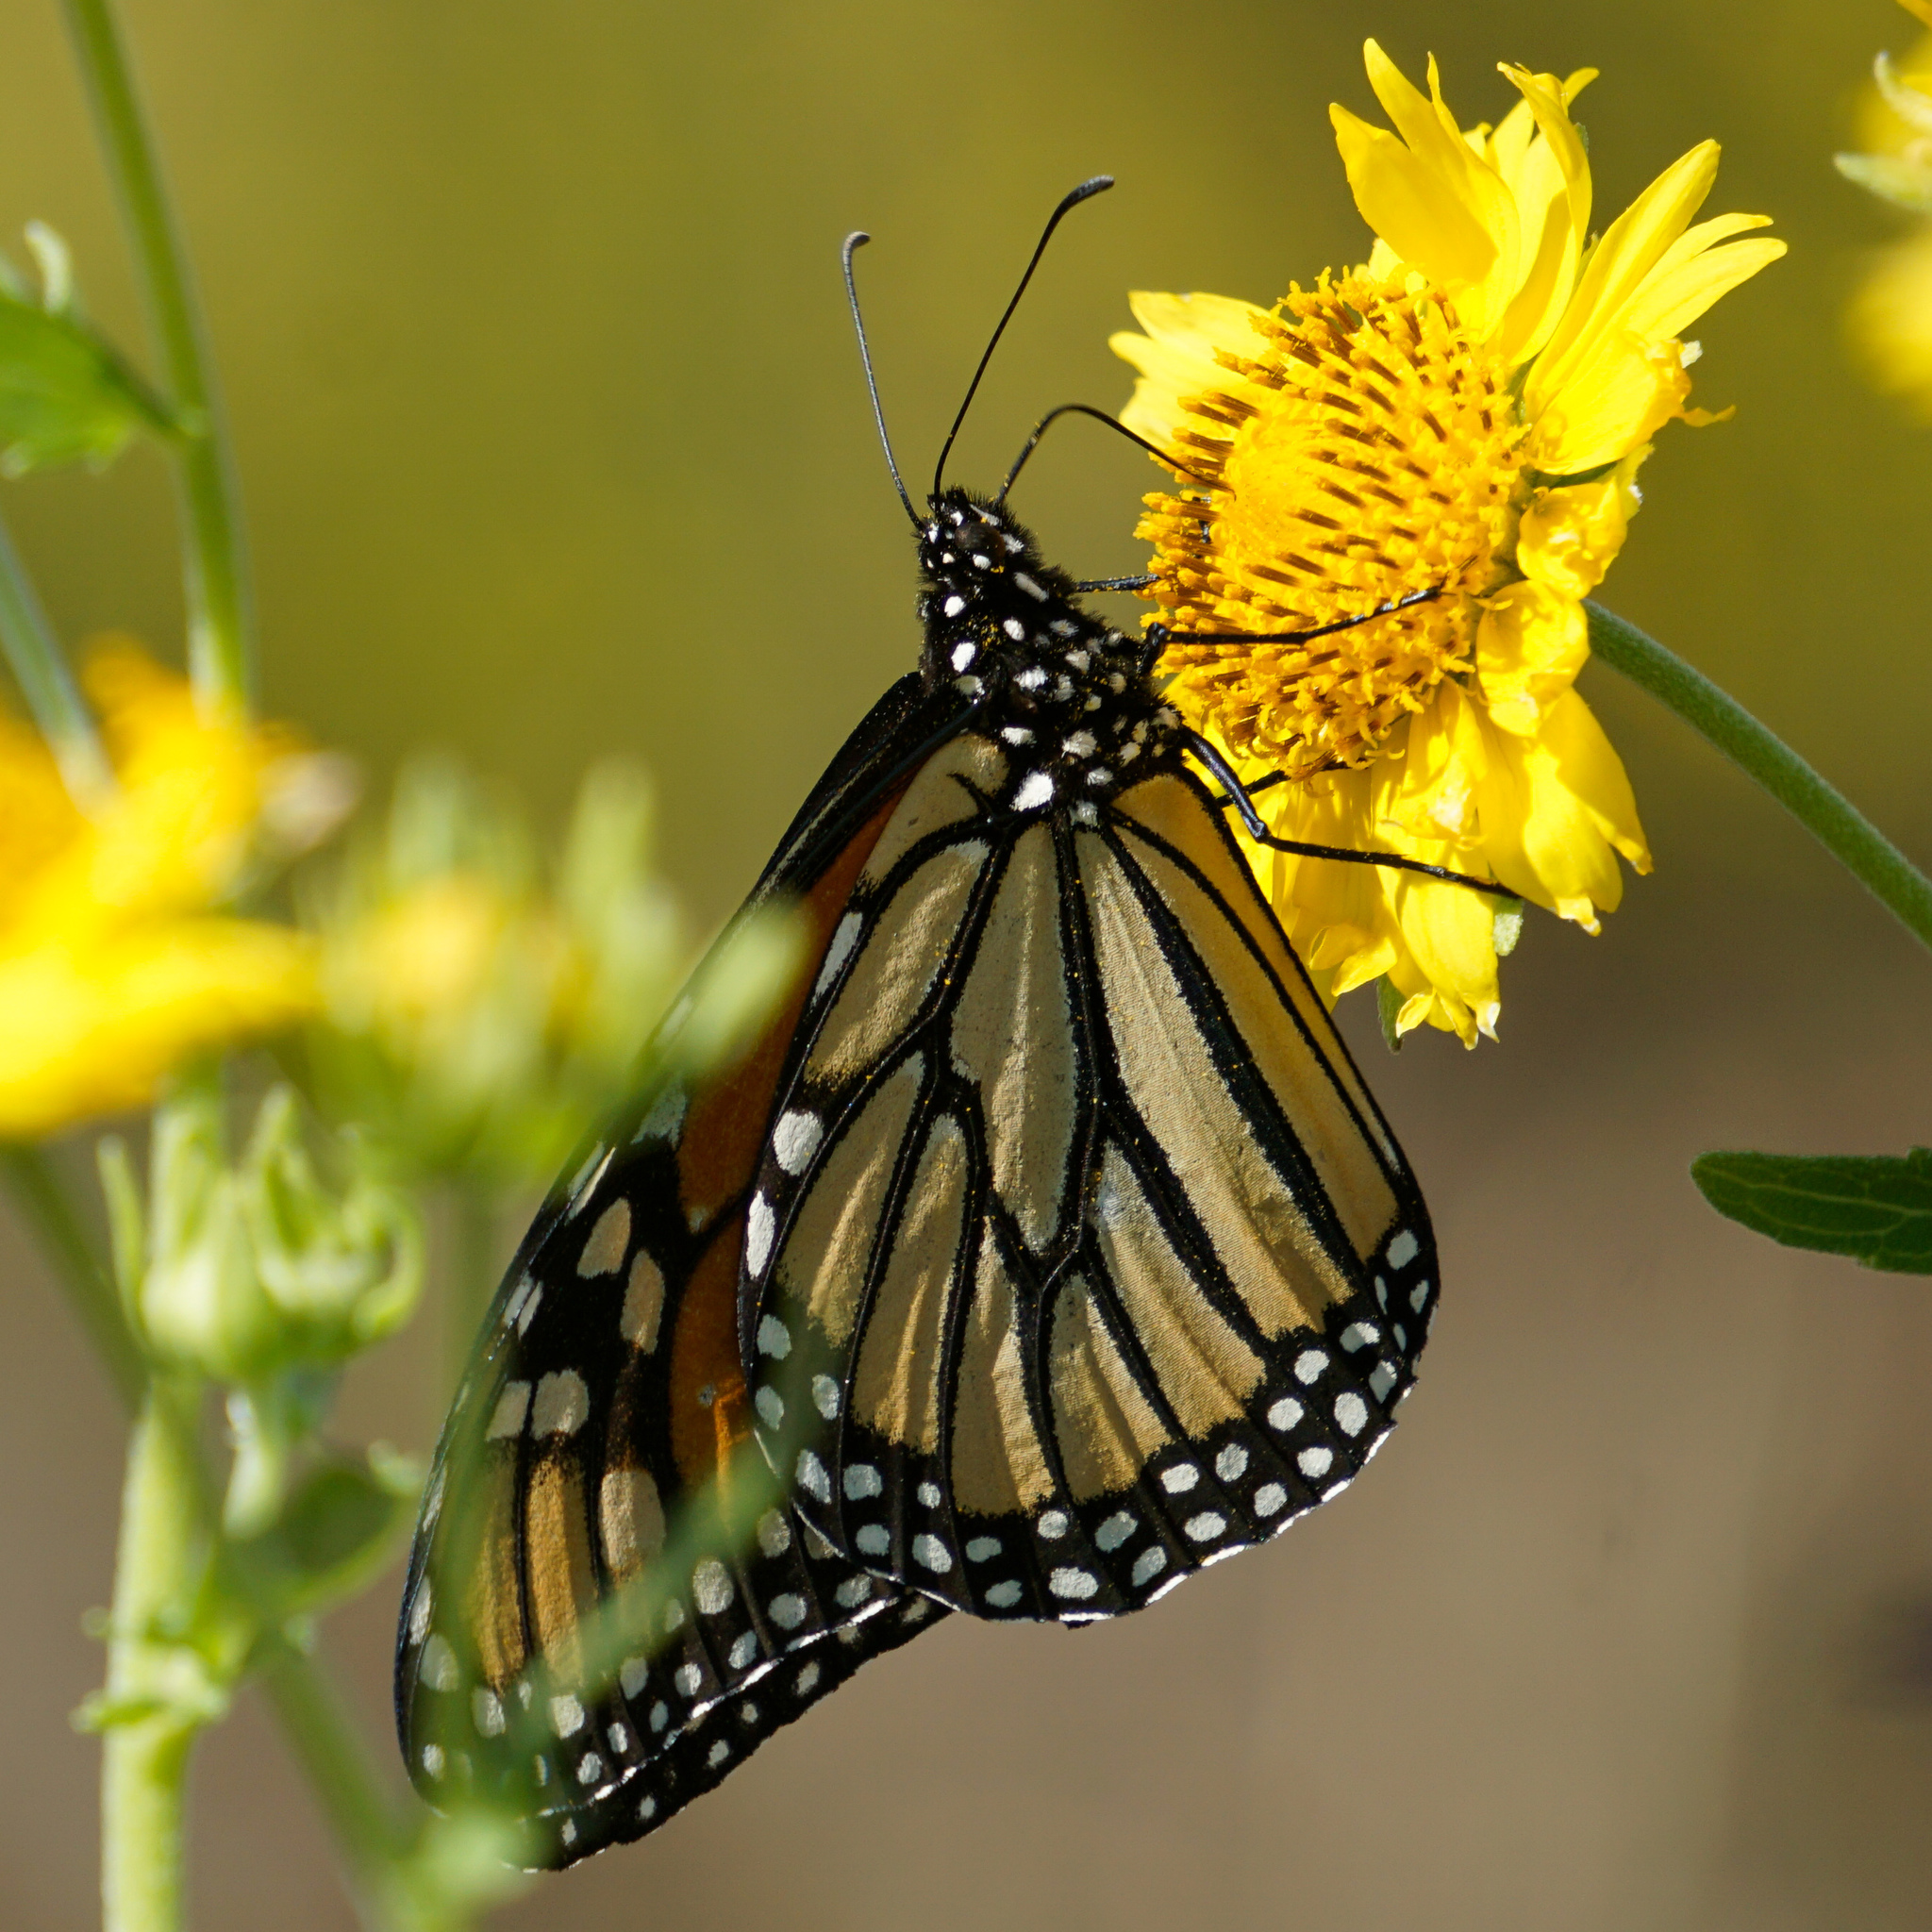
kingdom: Animalia
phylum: Arthropoda
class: Insecta
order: Lepidoptera
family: Nymphalidae
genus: Danaus
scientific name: Danaus plexippus
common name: Monarch
